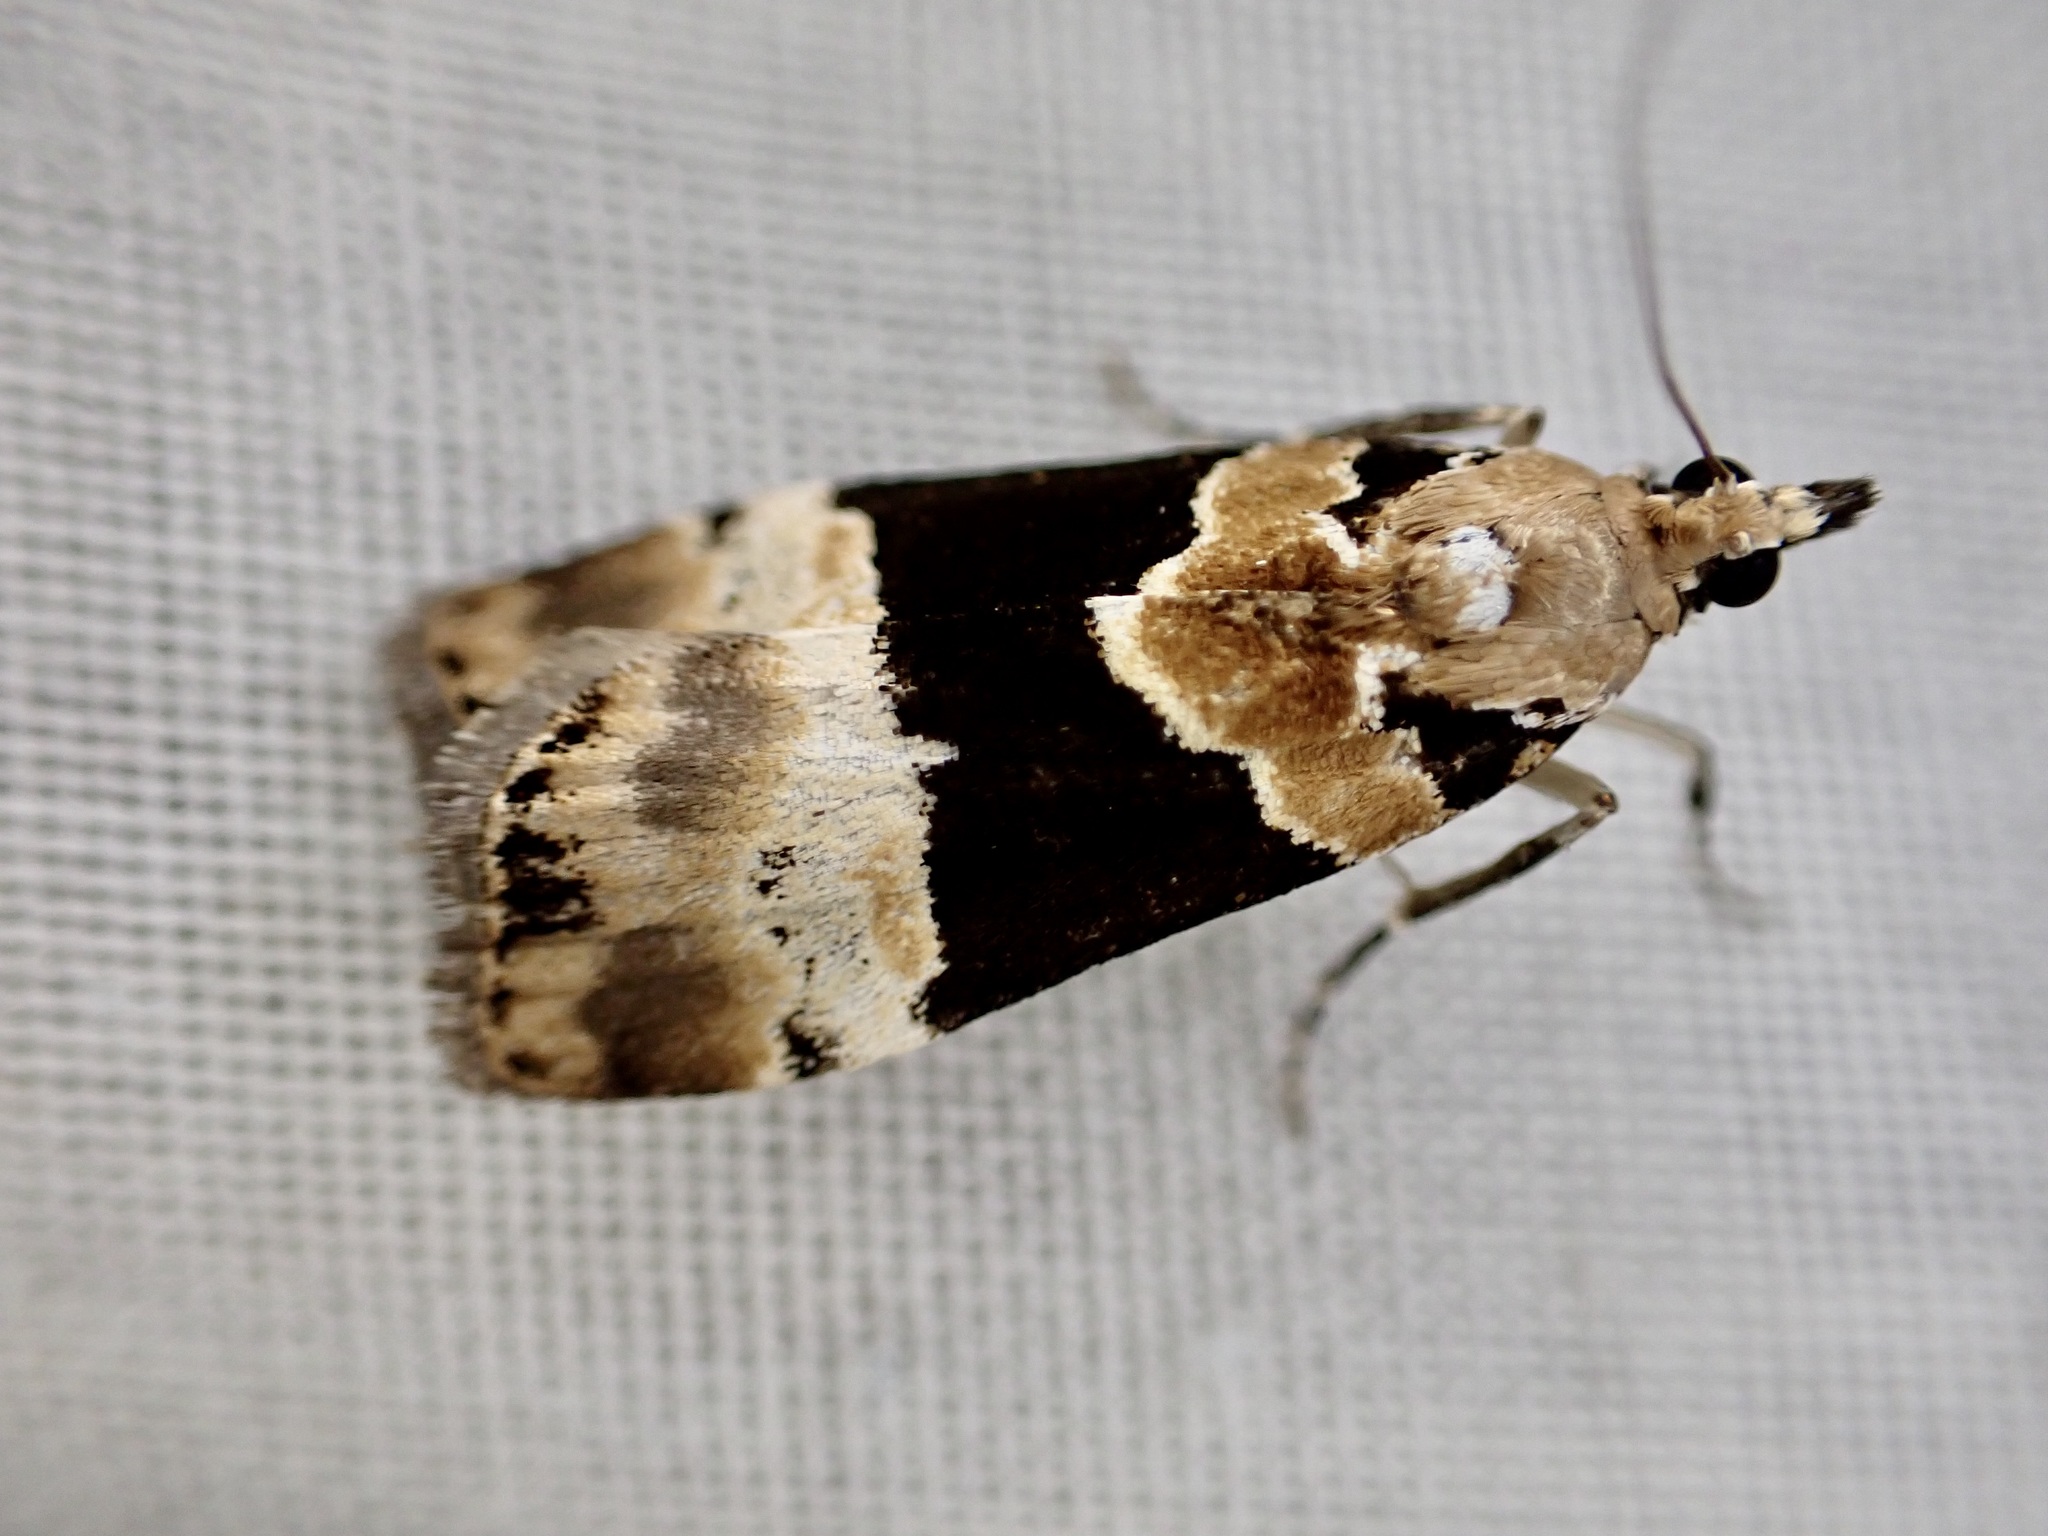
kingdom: Animalia
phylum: Arthropoda
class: Insecta
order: Lepidoptera
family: Crambidae
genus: Eudonia
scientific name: Eudonia aspidota
